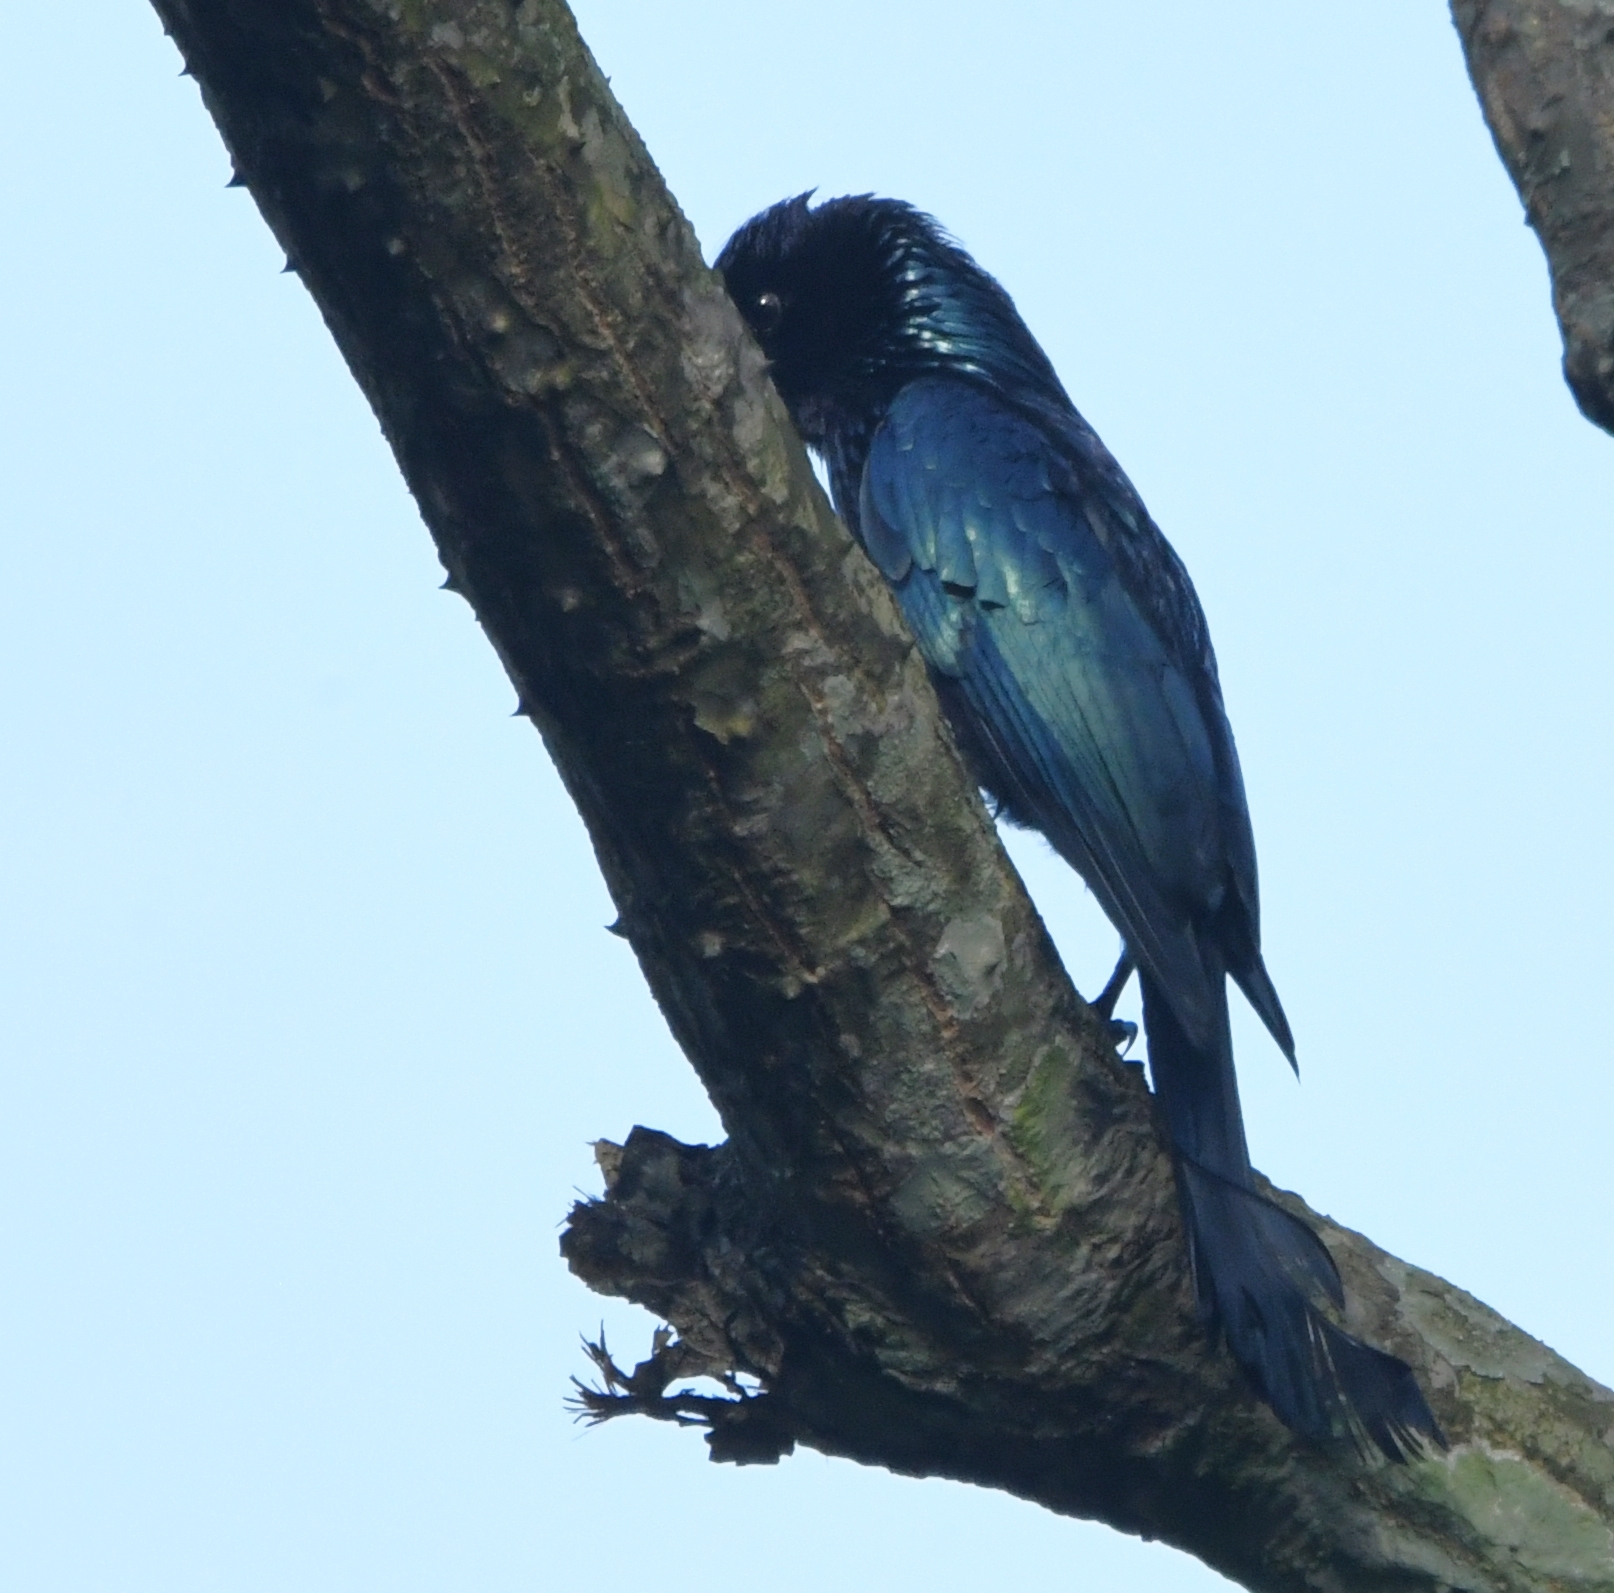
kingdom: Animalia
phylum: Chordata
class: Aves
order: Passeriformes
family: Dicruridae
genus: Dicrurus
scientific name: Dicrurus hottentottus
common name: Hair-crested drongo
